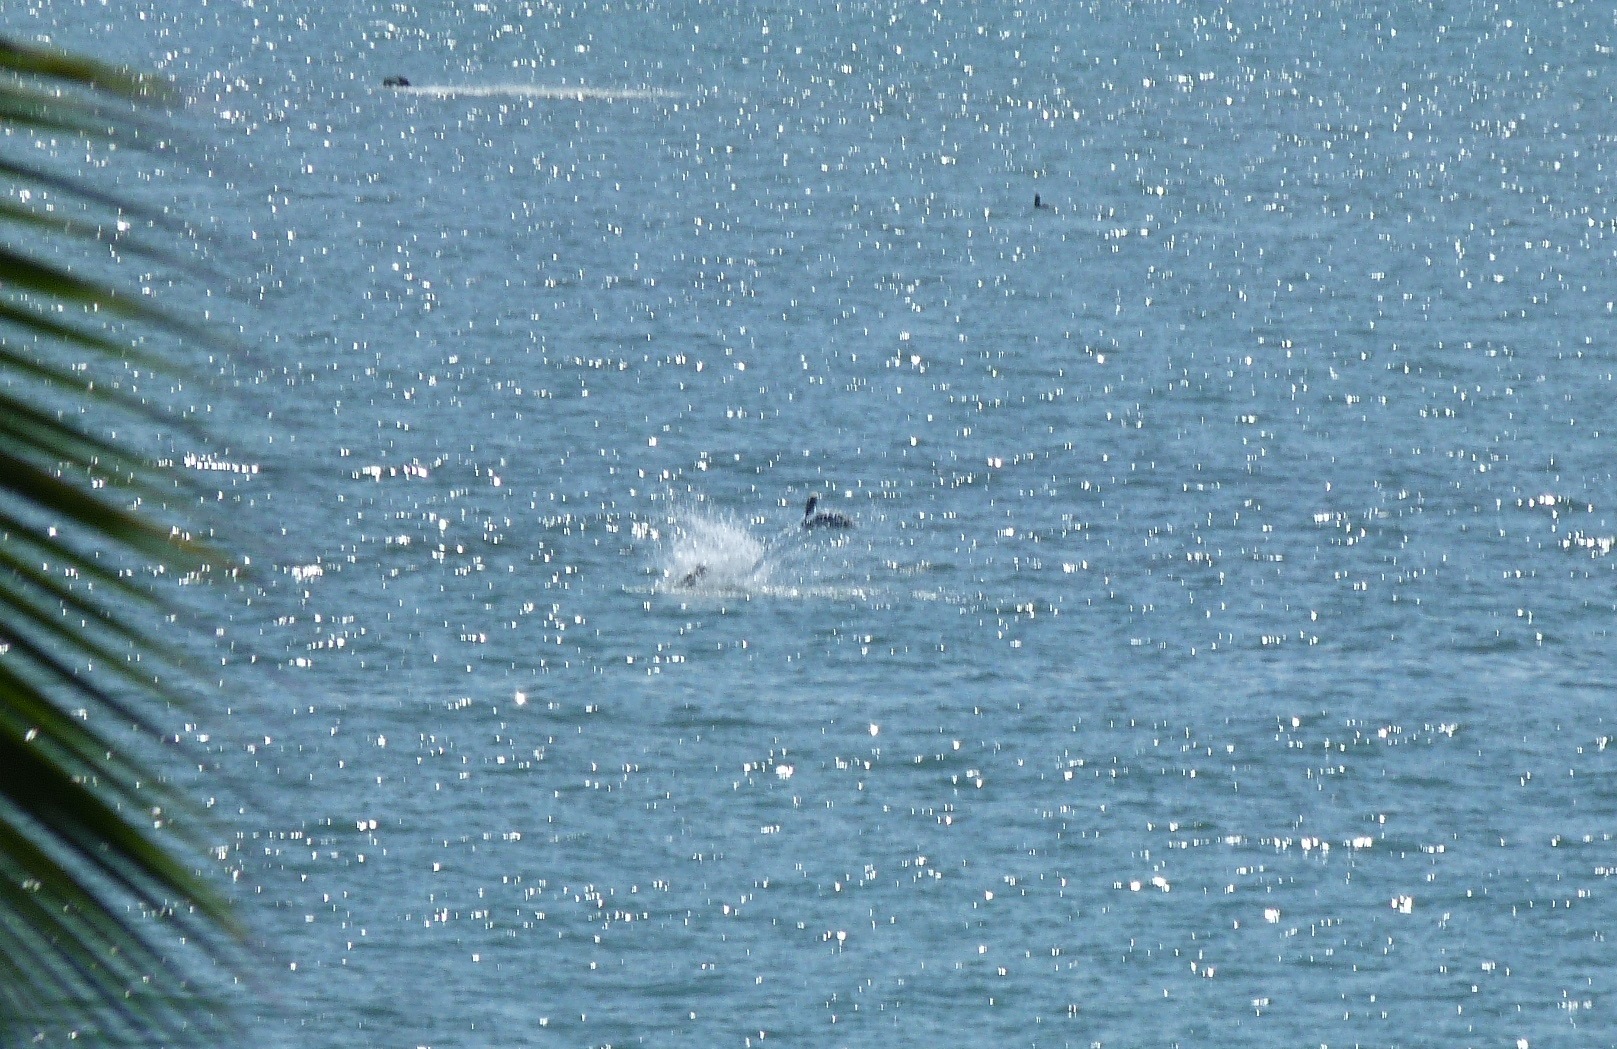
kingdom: Animalia
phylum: Chordata
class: Aves
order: Pelecaniformes
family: Pelecanidae
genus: Pelecanus
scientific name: Pelecanus occidentalis
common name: Brown pelican
